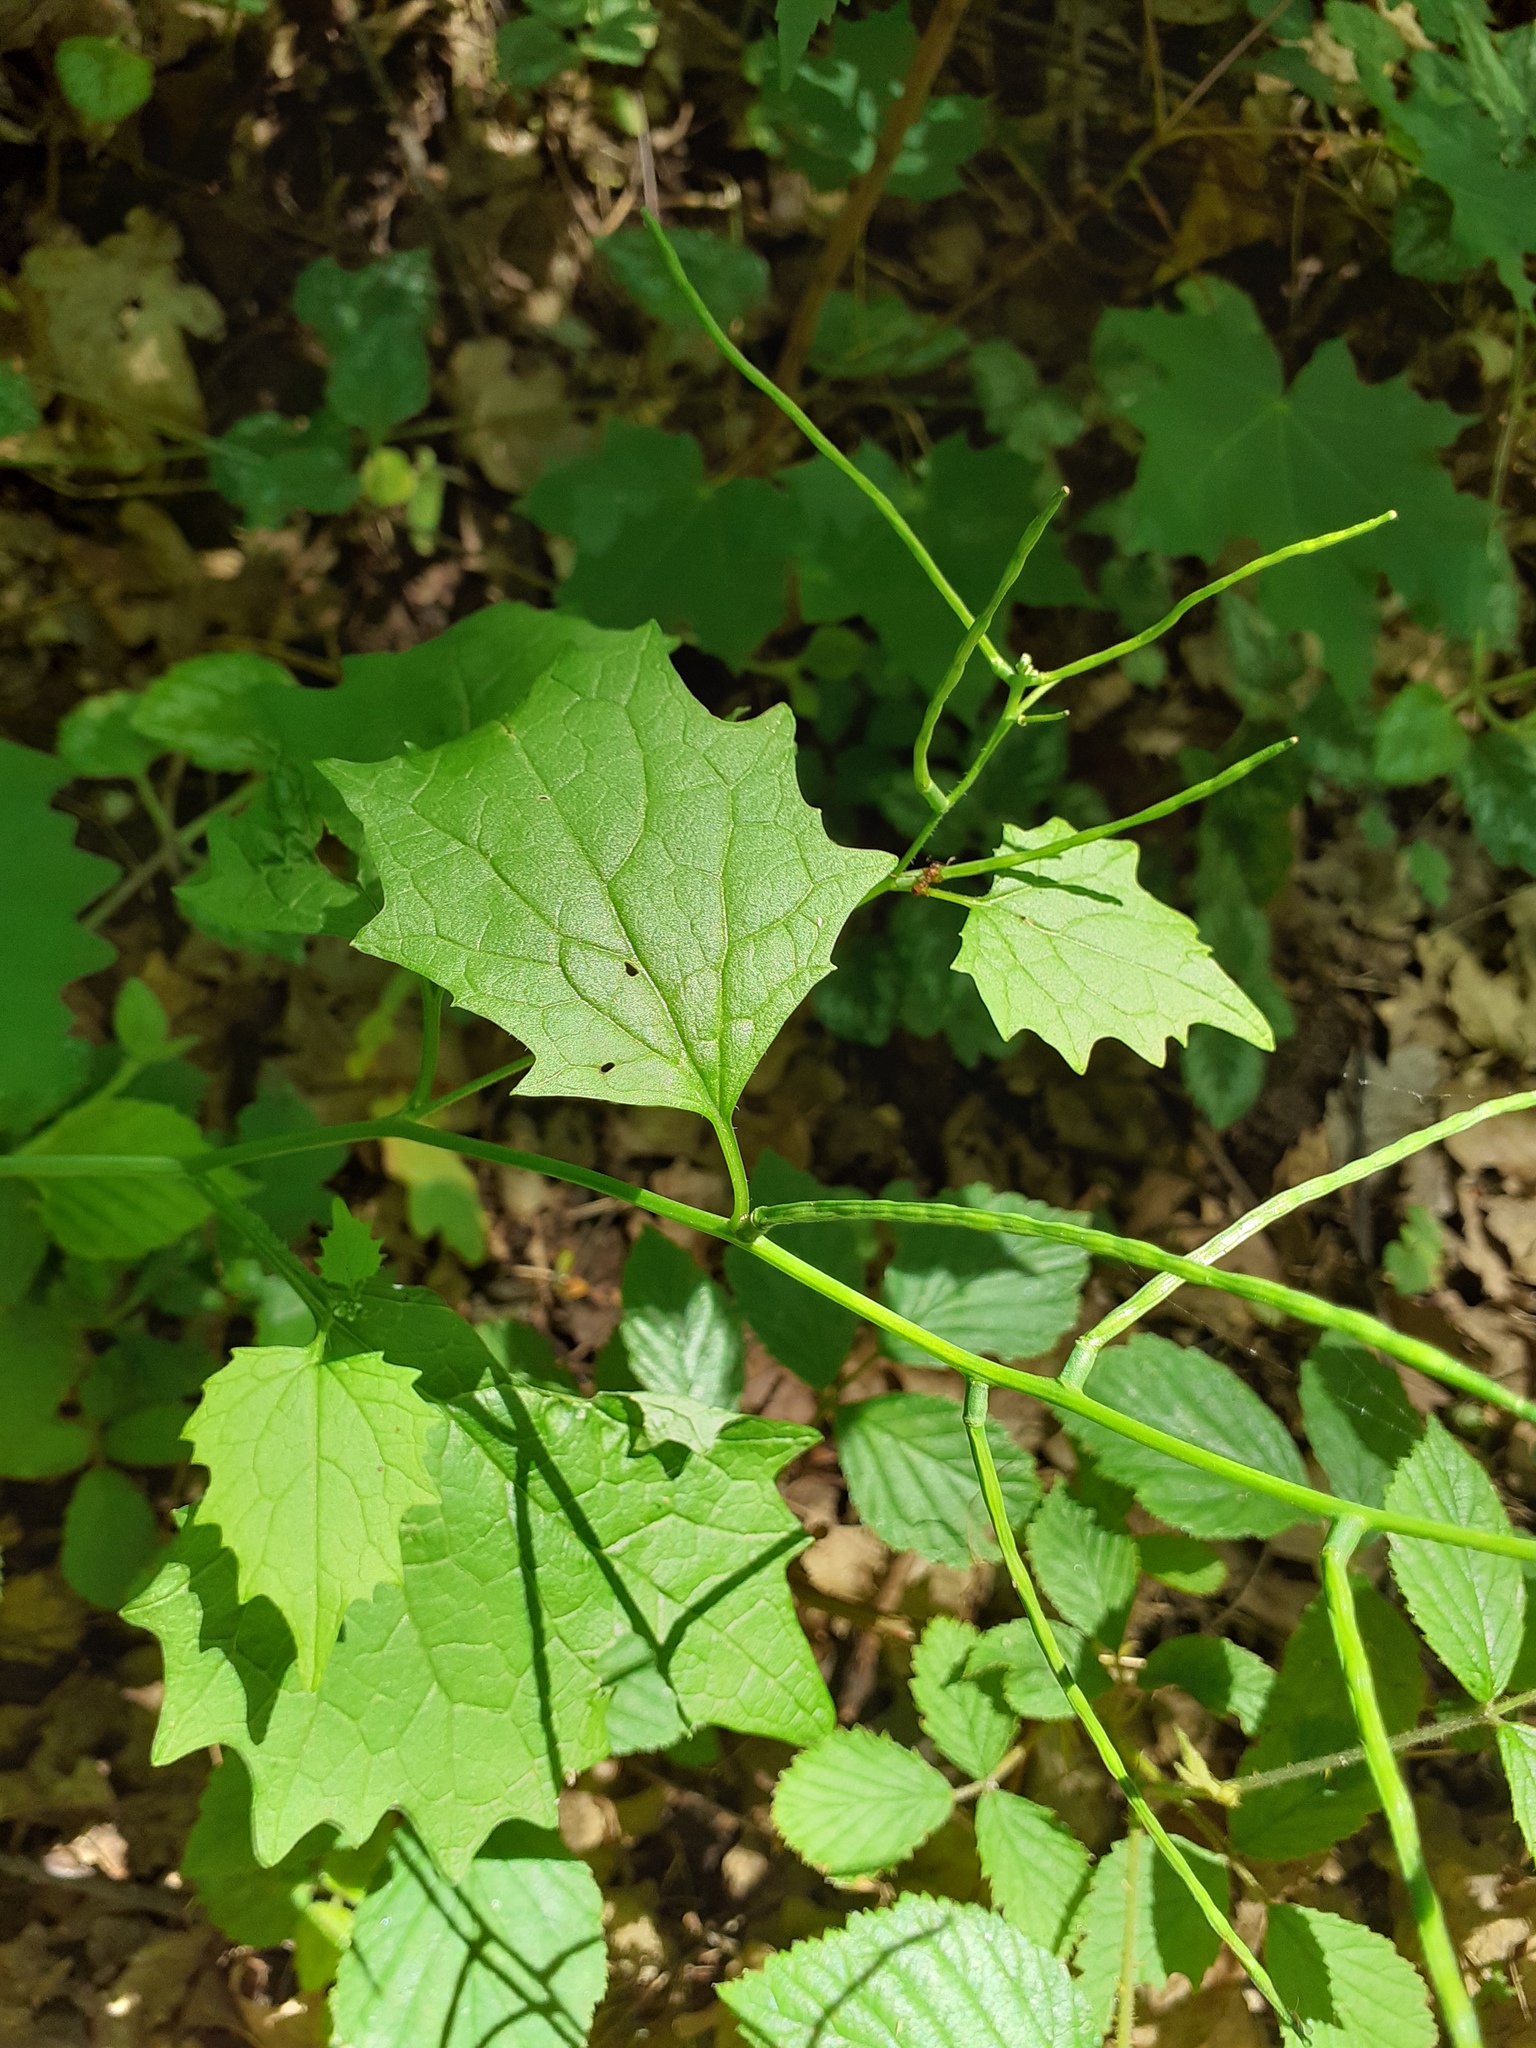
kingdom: Plantae
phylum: Tracheophyta
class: Magnoliopsida
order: Brassicales
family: Brassicaceae
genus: Alliaria
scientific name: Alliaria petiolata
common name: Garlic mustard
